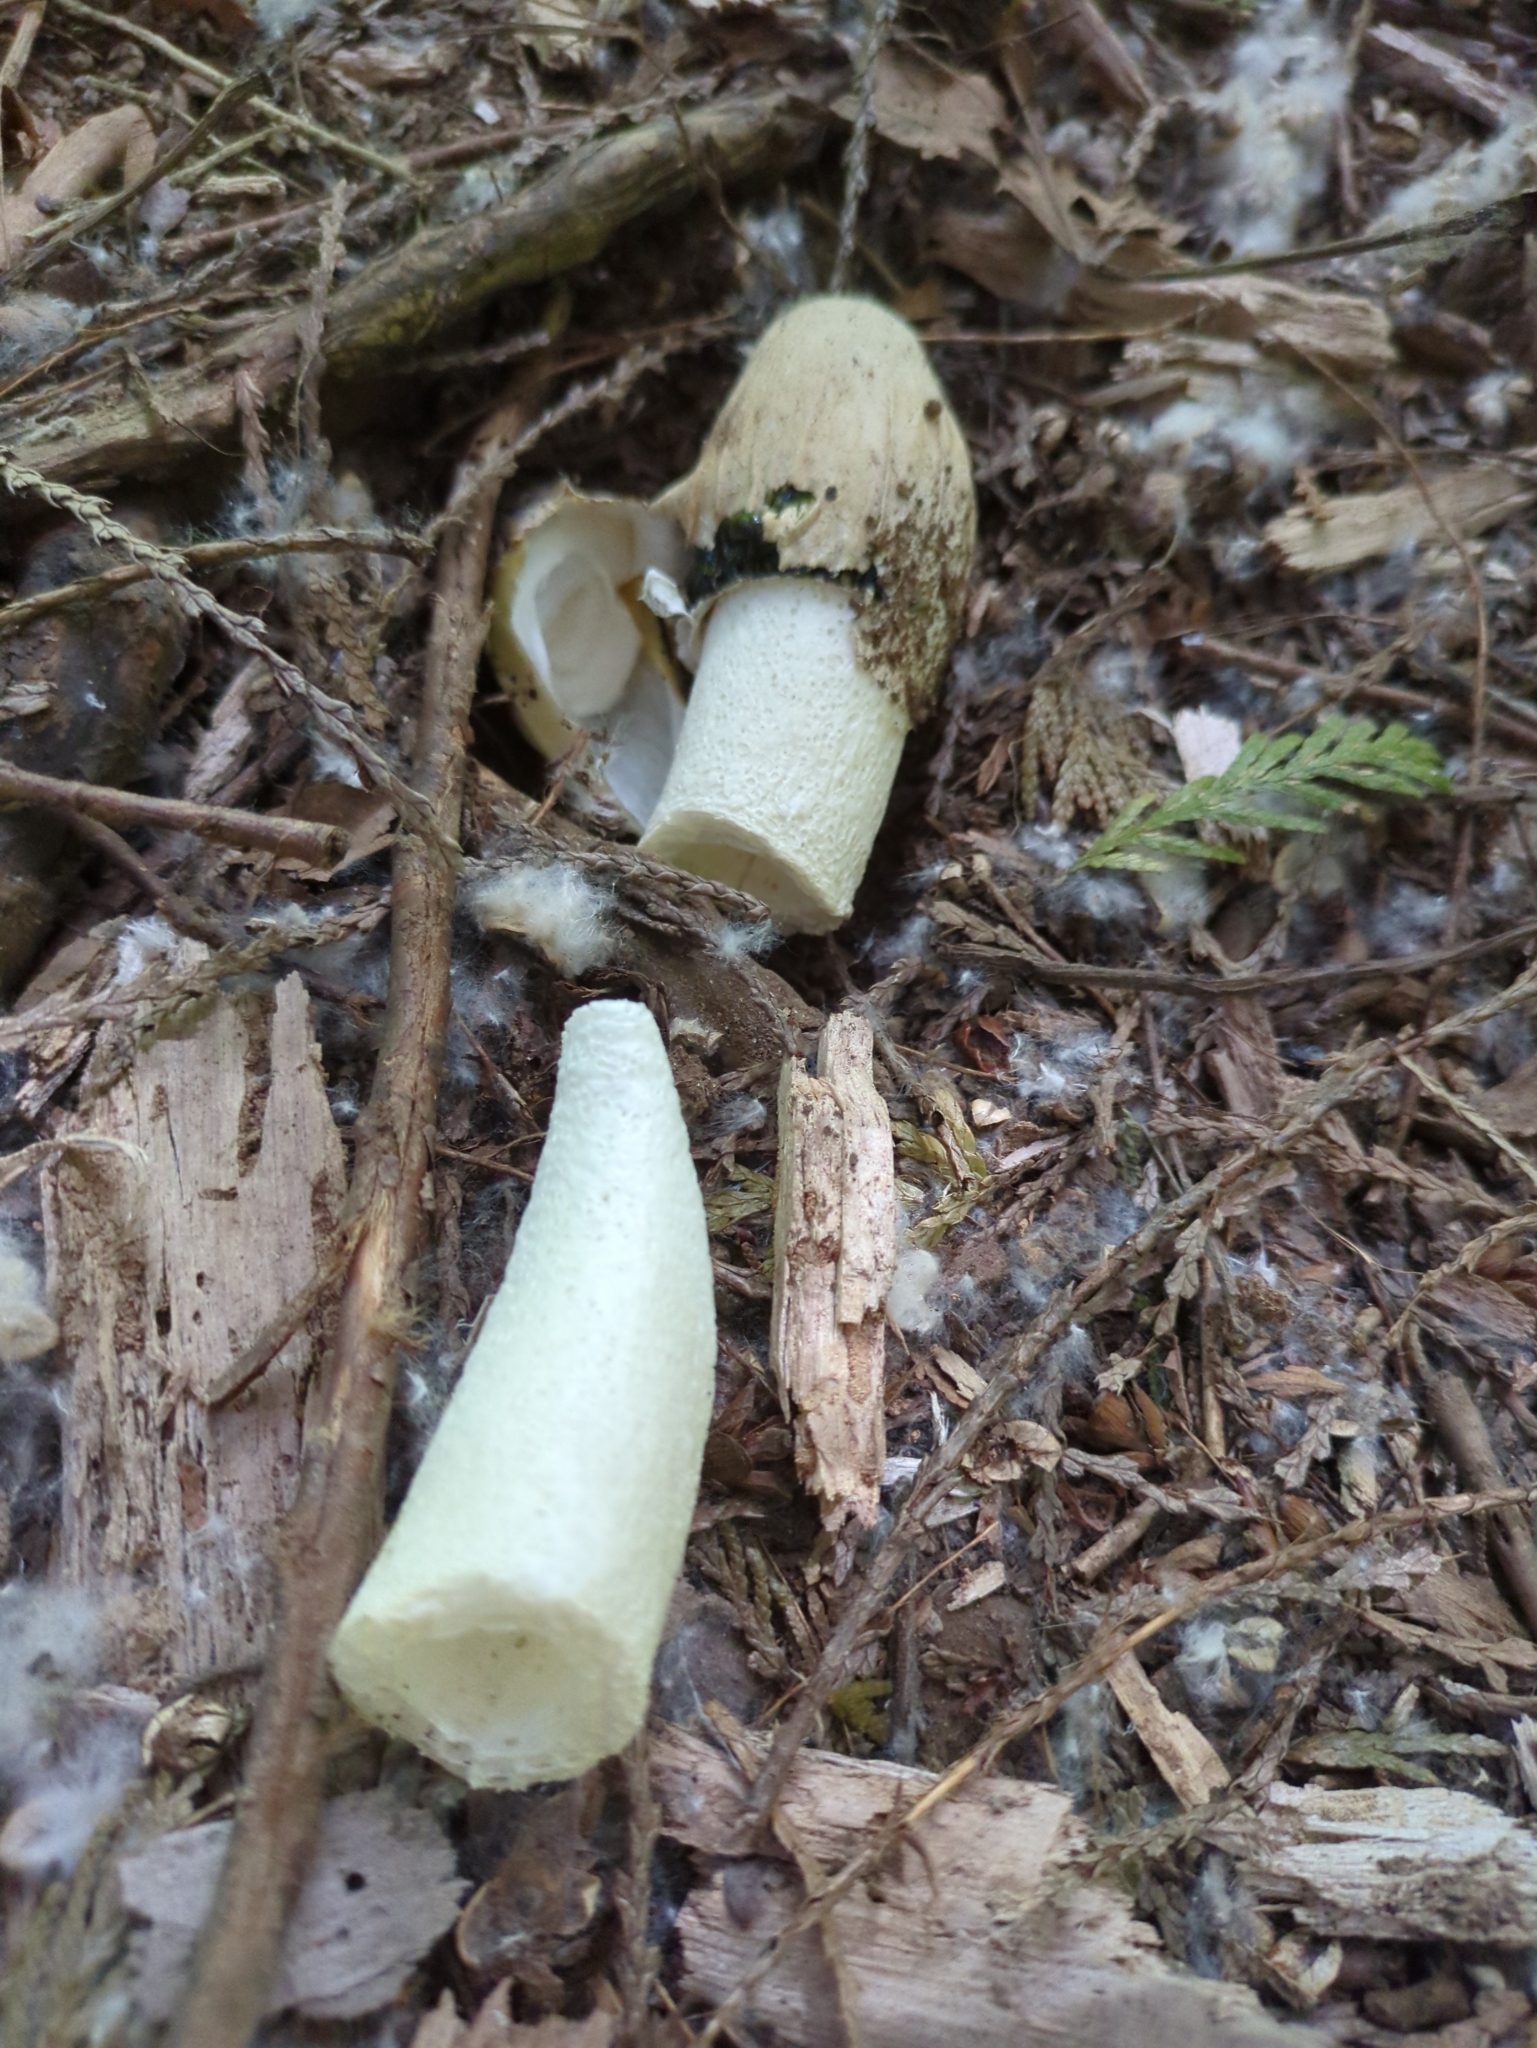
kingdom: Fungi
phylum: Basidiomycota
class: Agaricomycetes
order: Phallales
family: Phallaceae
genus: Phallus
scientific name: Phallus impudicus
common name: Common stinkhorn
